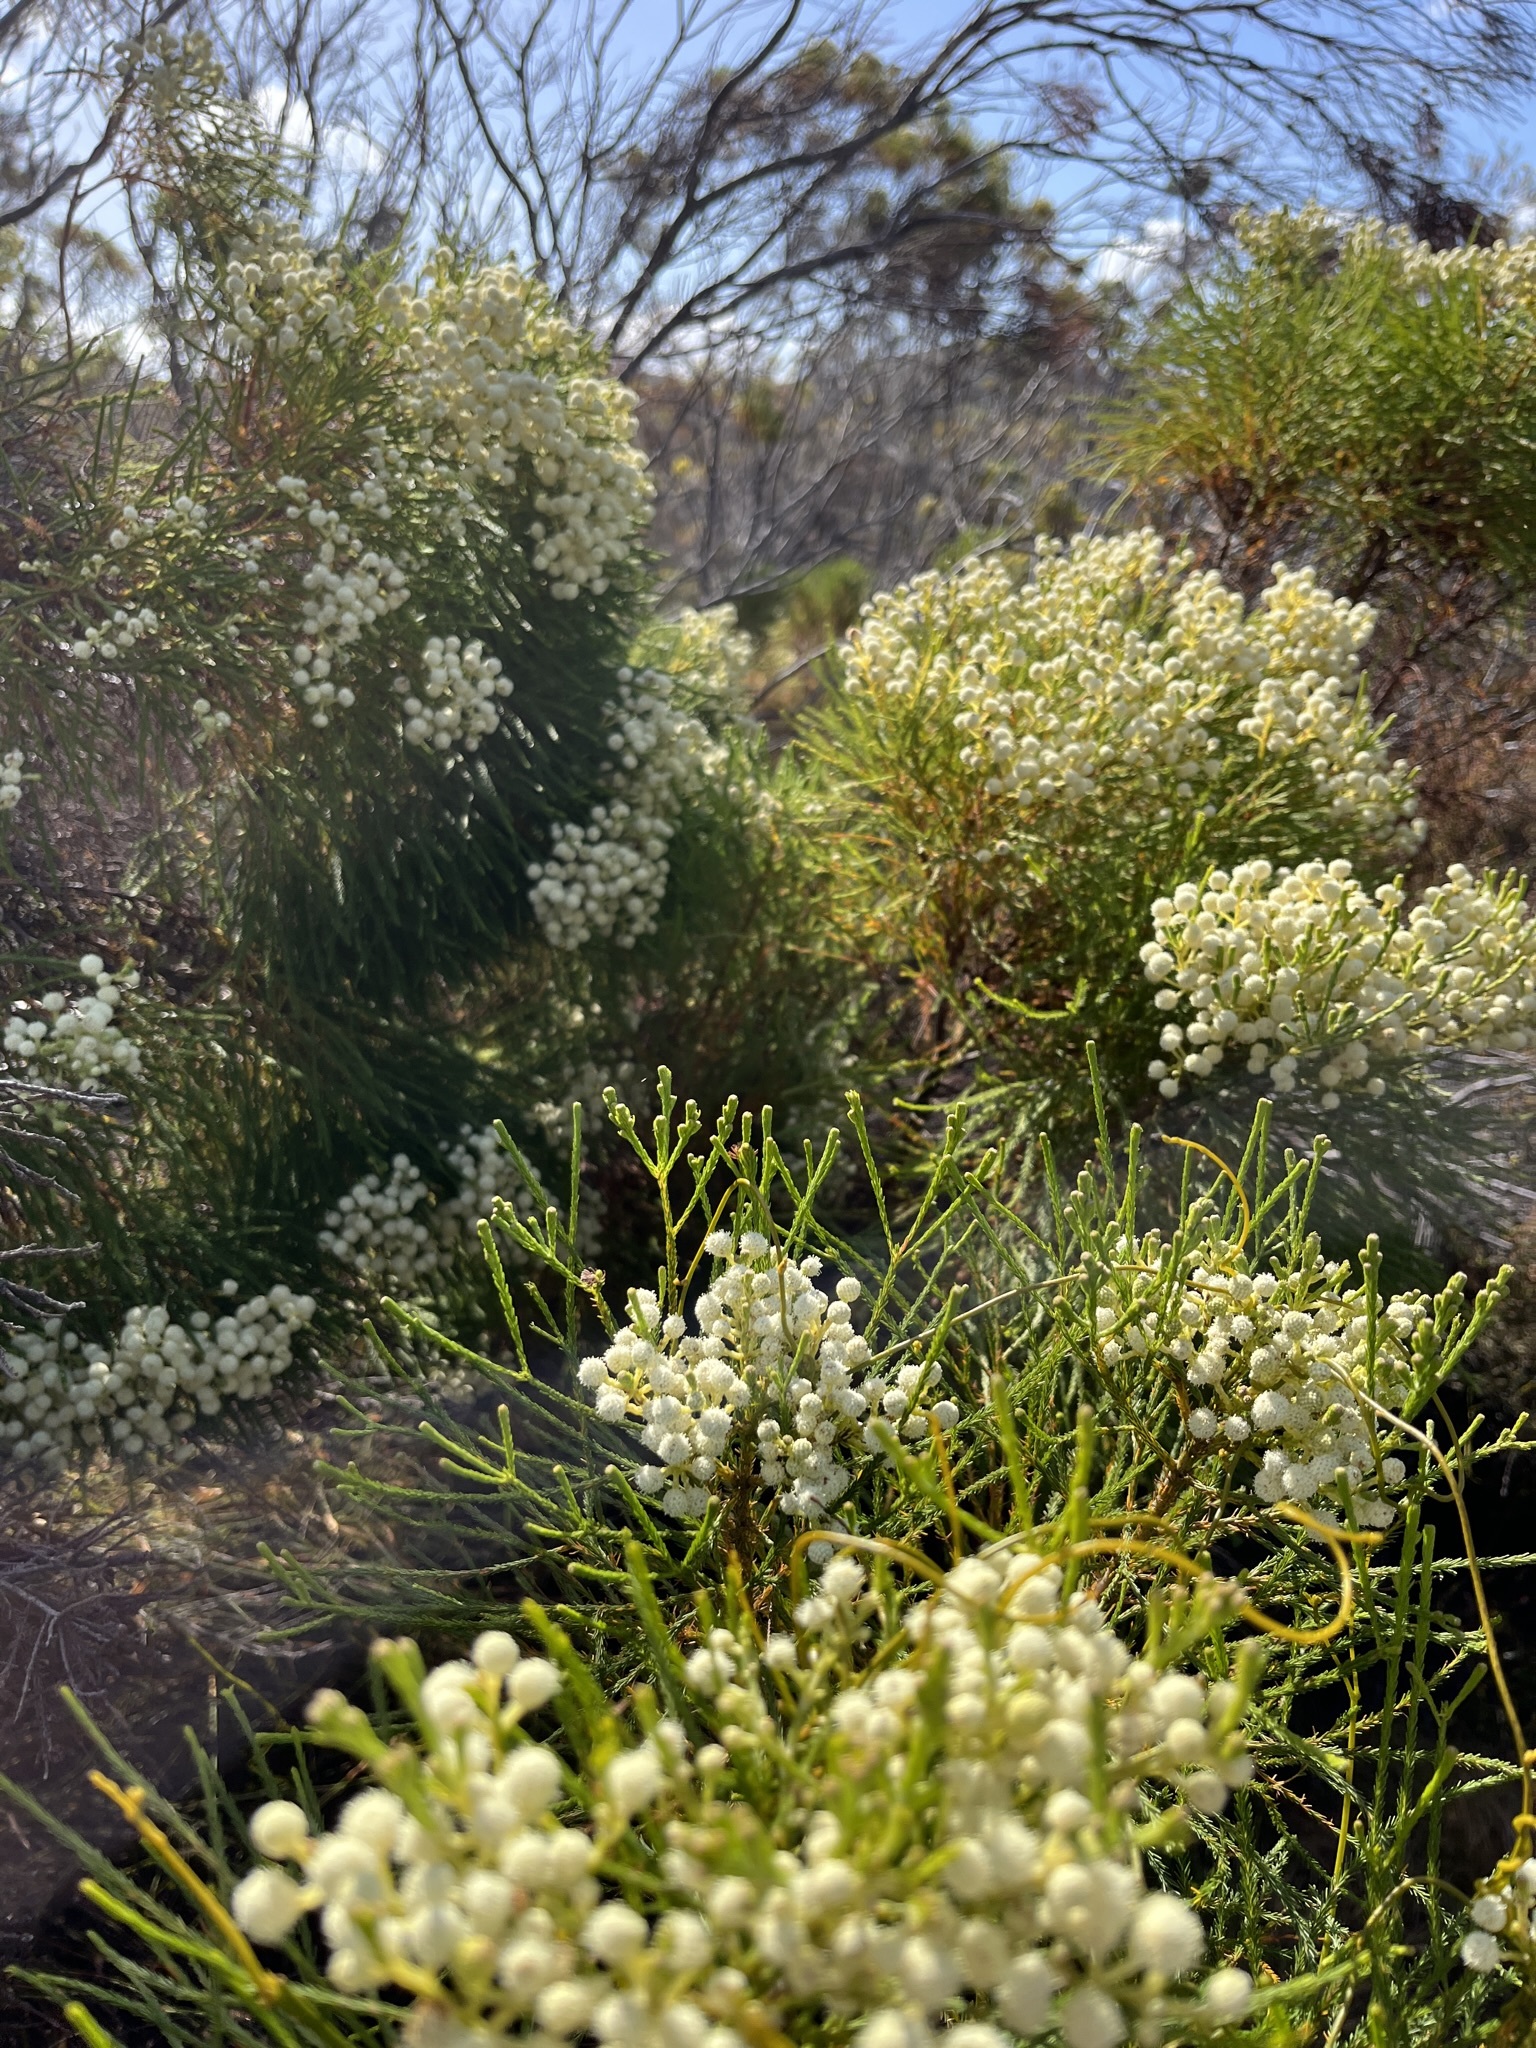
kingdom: Plantae
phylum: Tracheophyta
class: Magnoliopsida
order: Bruniales
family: Bruniaceae
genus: Berzelia
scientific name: Berzelia lanuginosa
